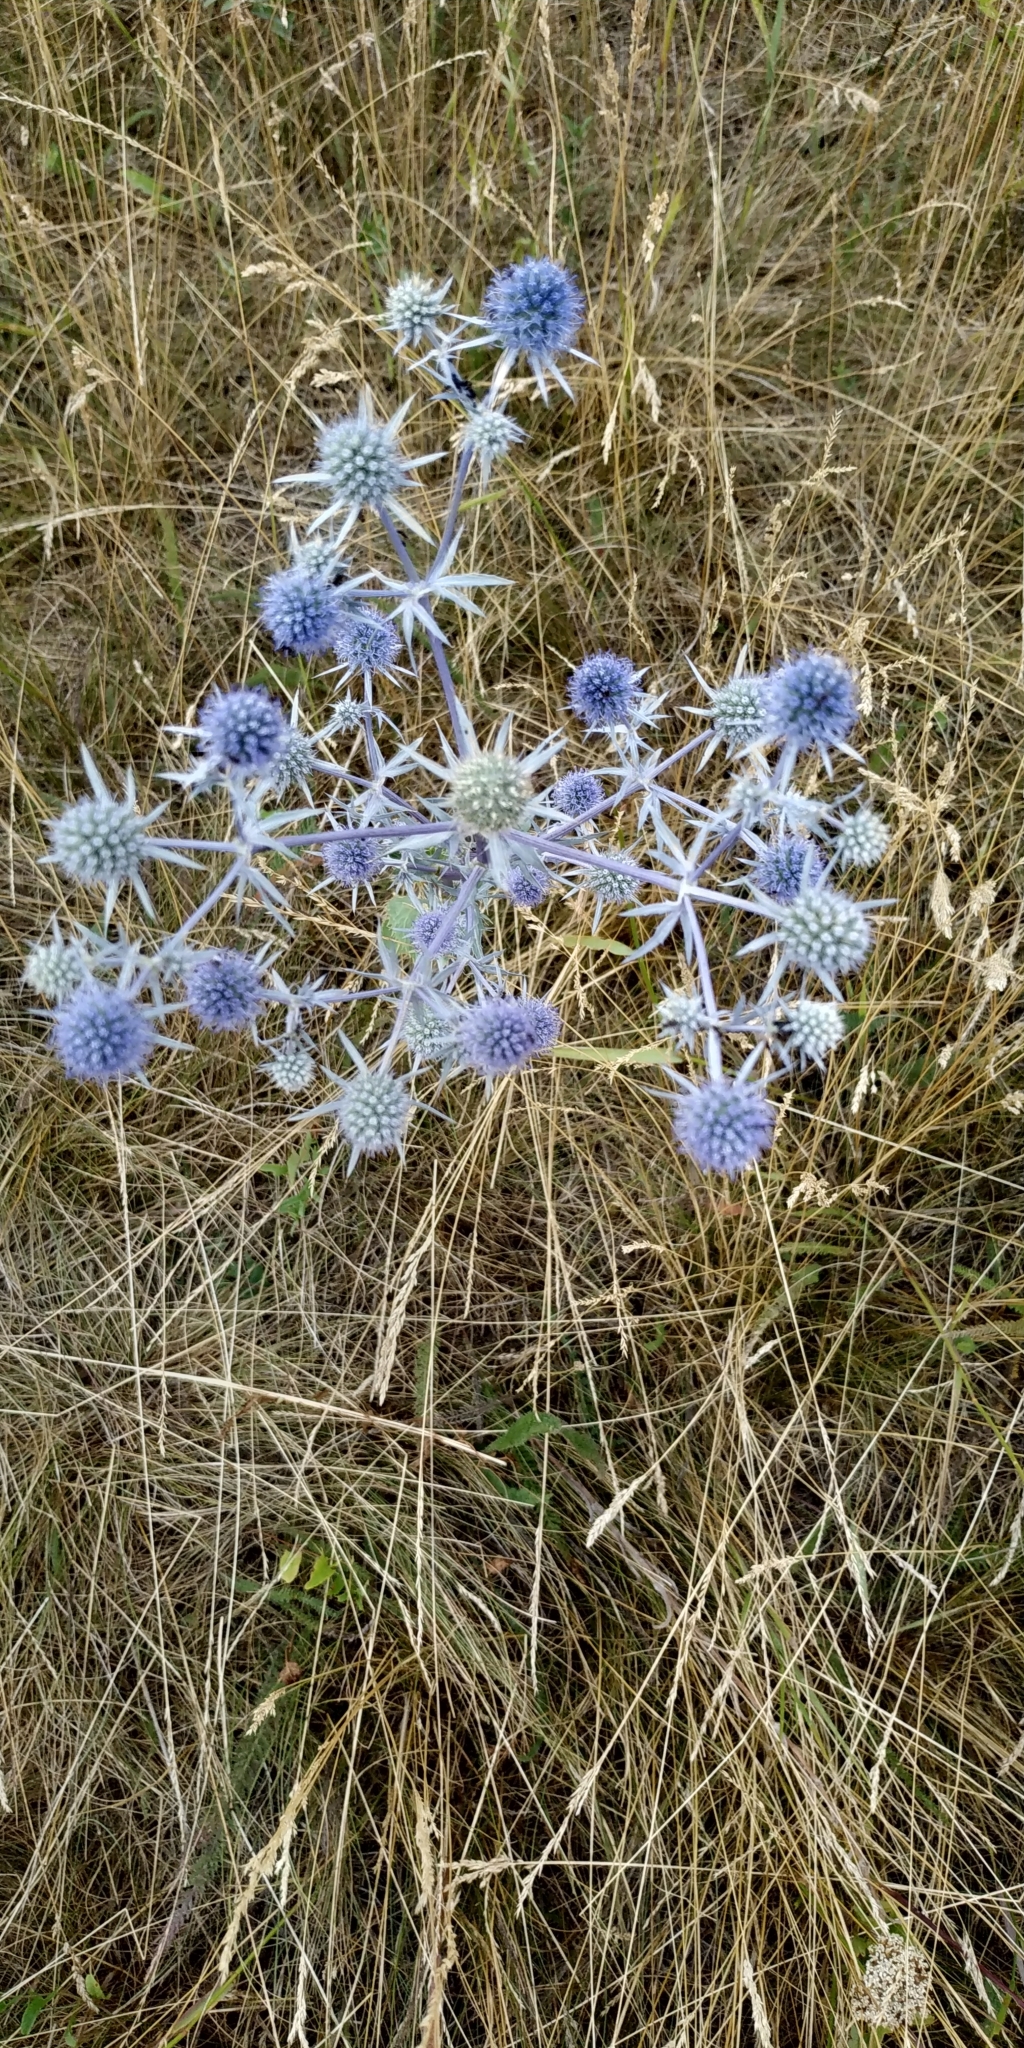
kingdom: Plantae
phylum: Tracheophyta
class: Magnoliopsida
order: Apiales
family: Apiaceae
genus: Eryngium
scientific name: Eryngium planum
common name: Blue eryngo
